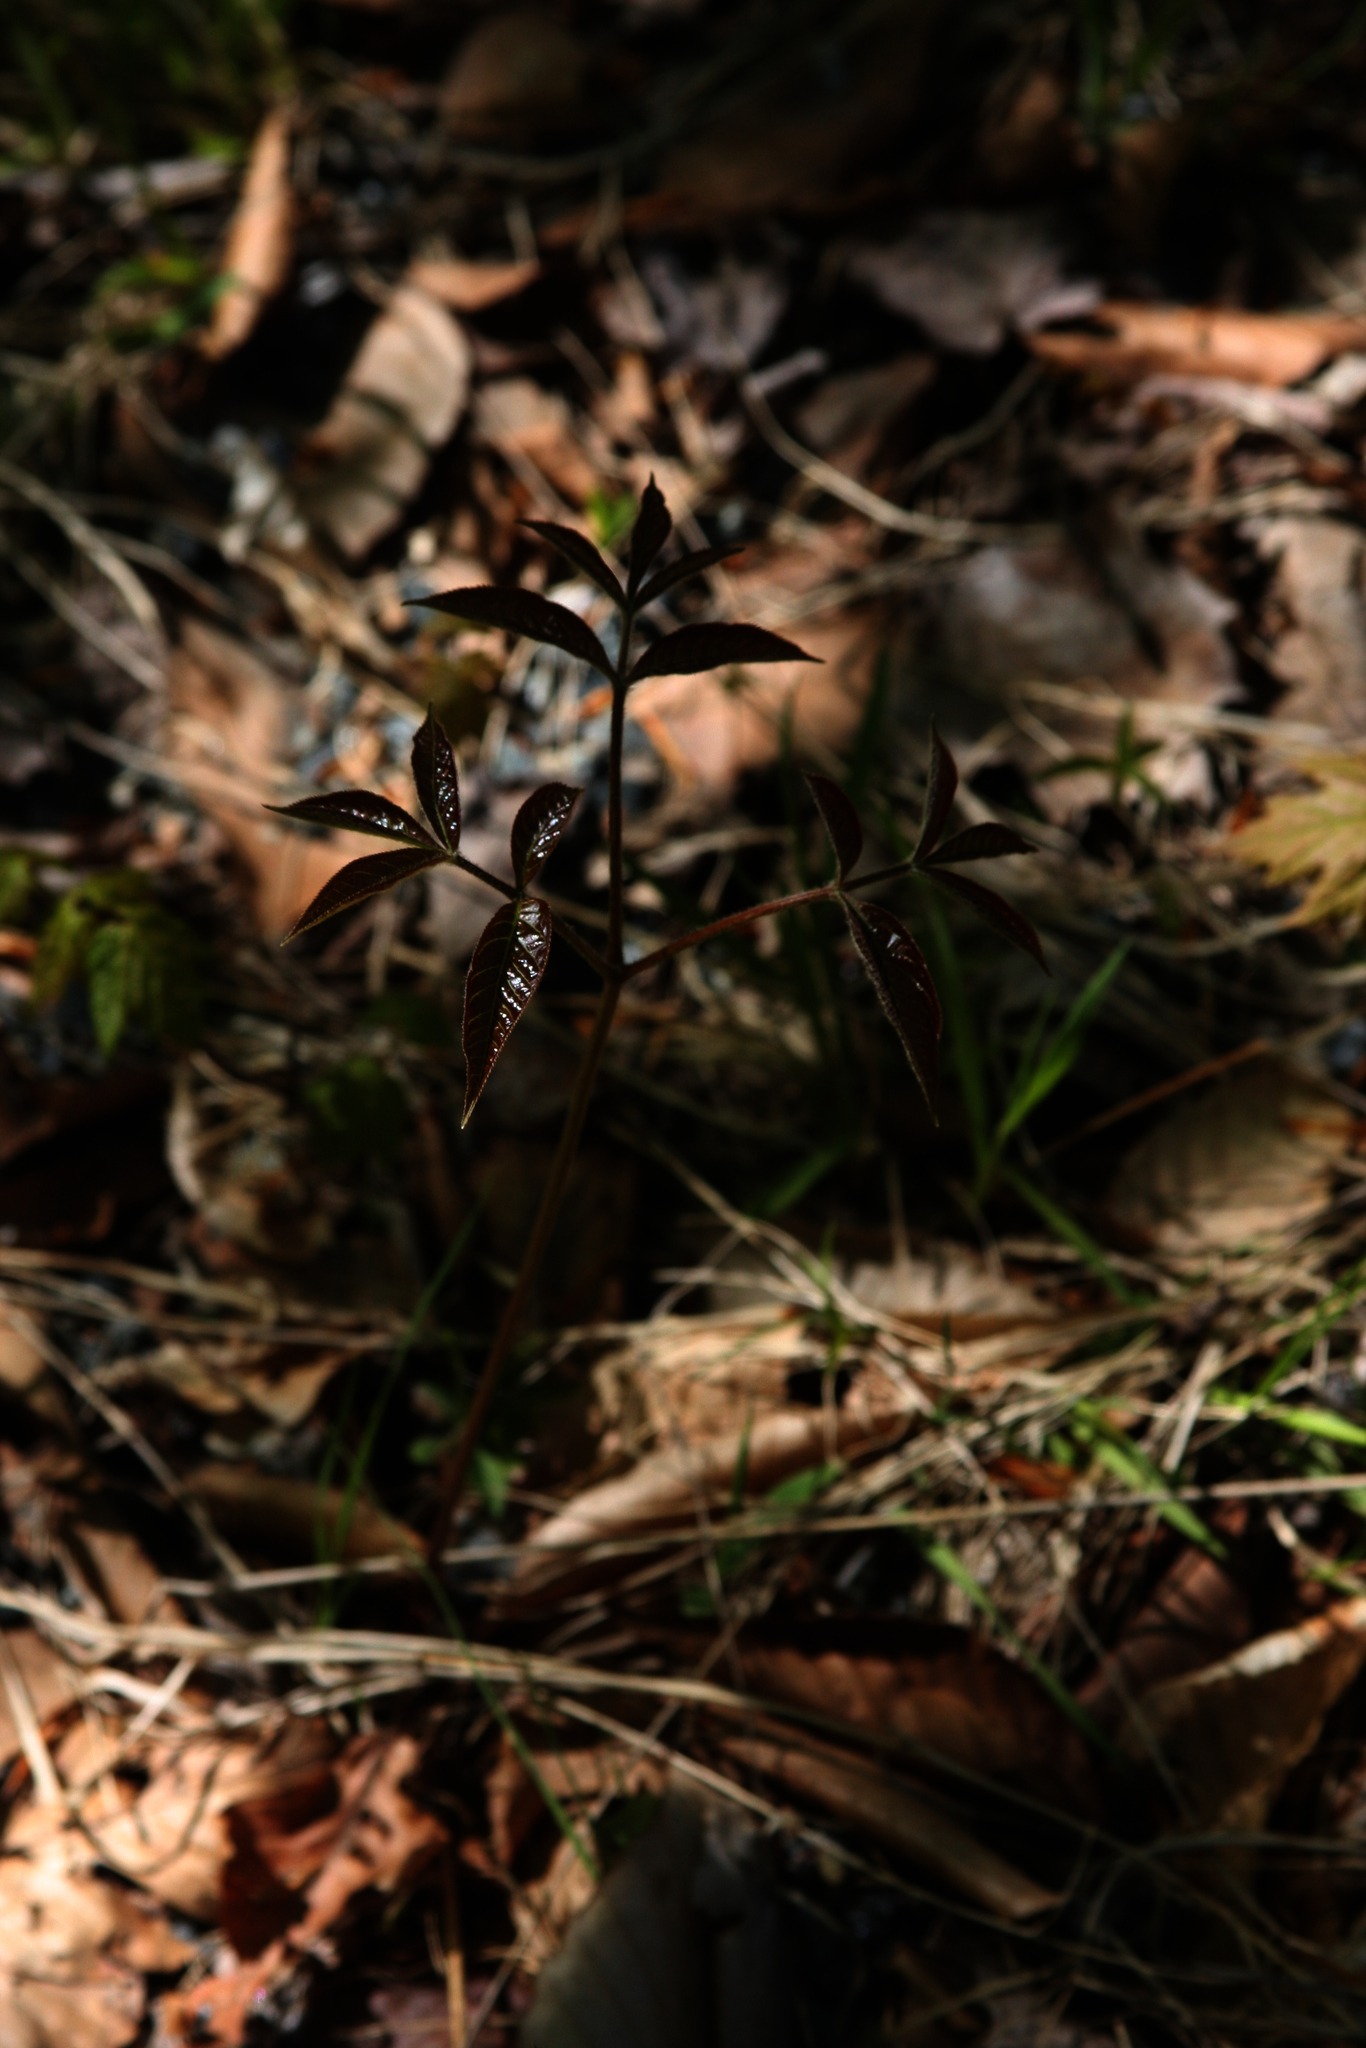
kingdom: Plantae
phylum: Tracheophyta
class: Magnoliopsida
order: Apiales
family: Araliaceae
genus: Aralia
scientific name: Aralia nudicaulis
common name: Wild sarsaparilla
